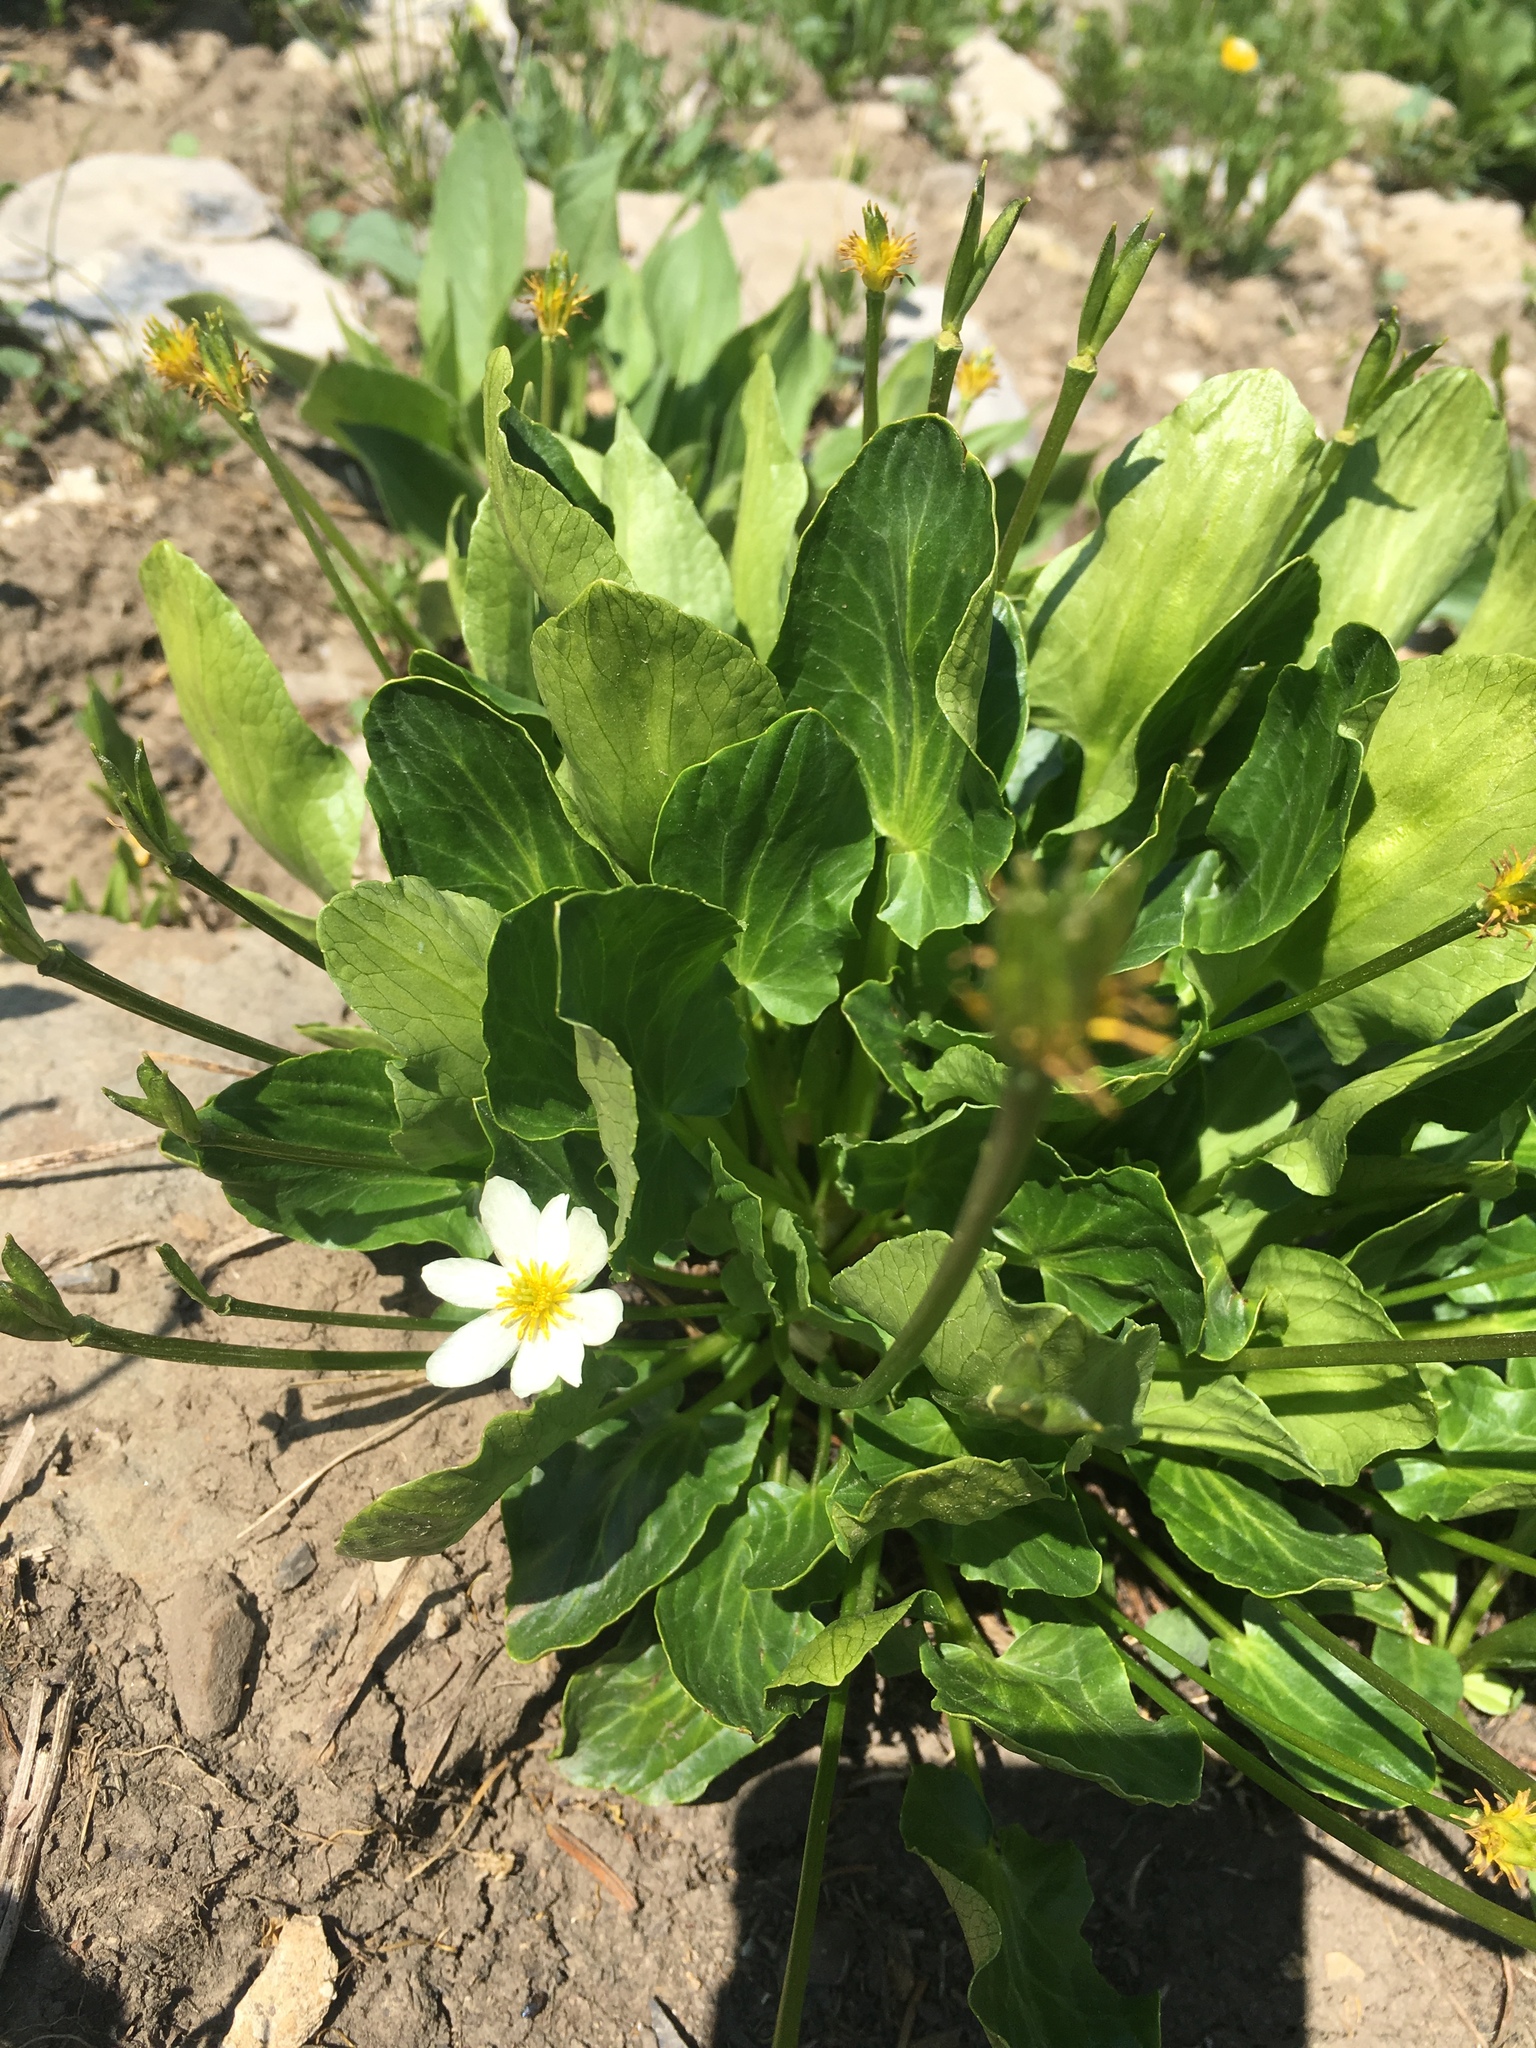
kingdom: Plantae
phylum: Tracheophyta
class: Magnoliopsida
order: Ranunculales
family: Ranunculaceae
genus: Caltha
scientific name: Caltha leptosepala
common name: Elkslip
